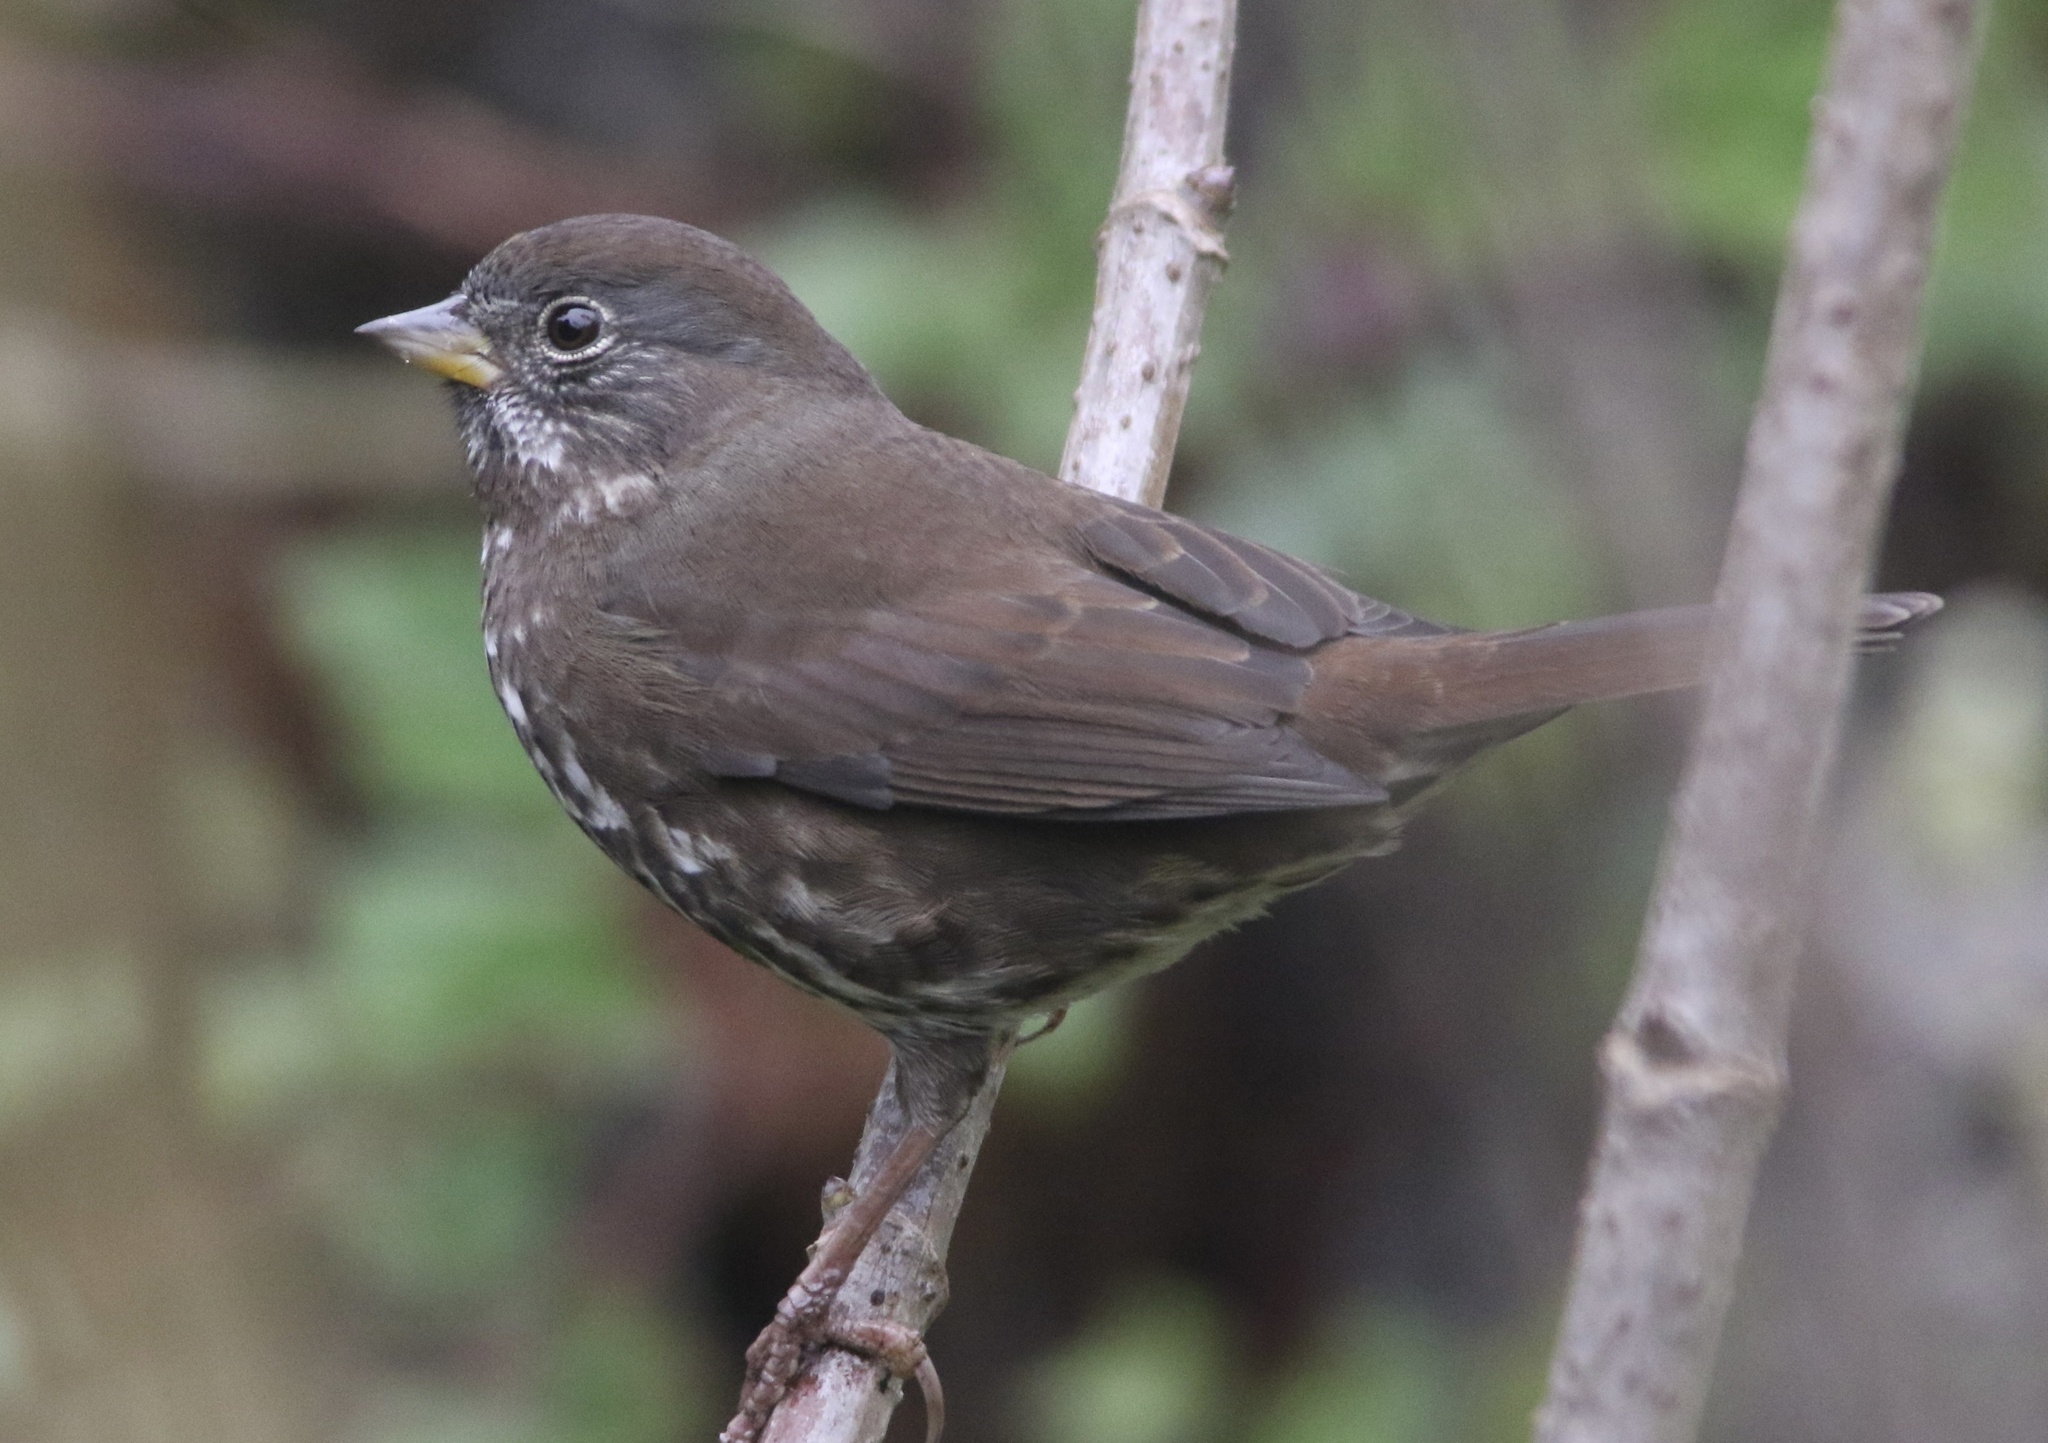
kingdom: Animalia
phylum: Chordata
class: Aves
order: Passeriformes
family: Passerellidae
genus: Passerella
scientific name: Passerella iliaca
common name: Fox sparrow
